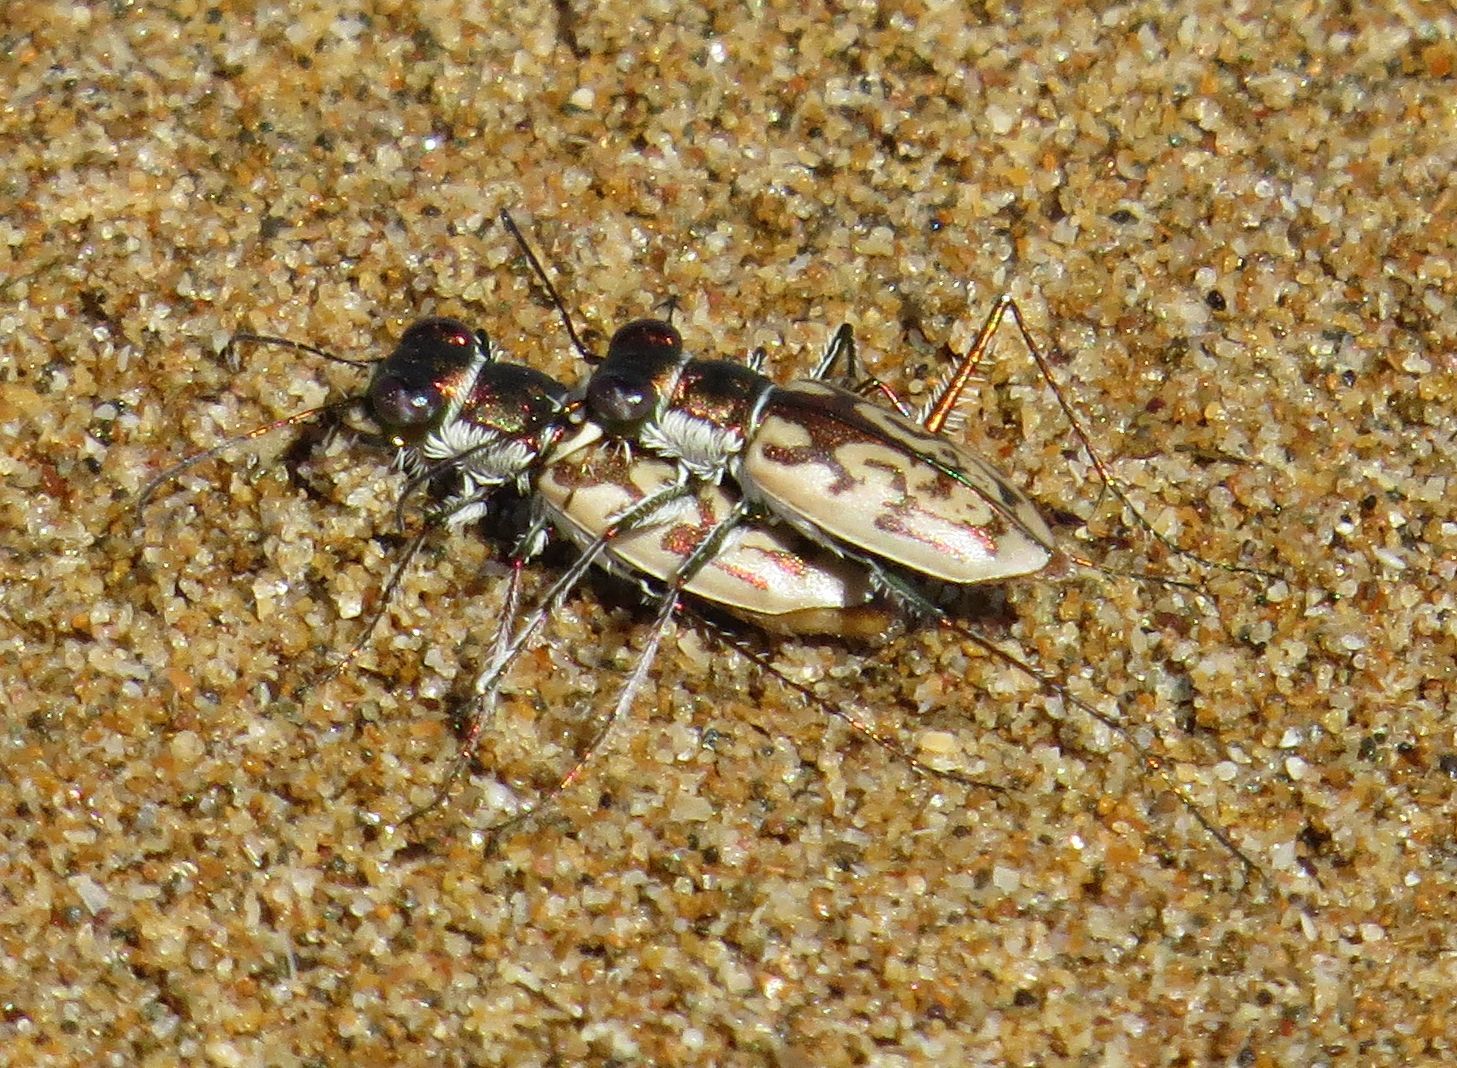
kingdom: Animalia
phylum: Arthropoda
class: Insecta
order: Coleoptera
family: Carabidae
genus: Hypaetha
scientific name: Hypaetha upsilon
